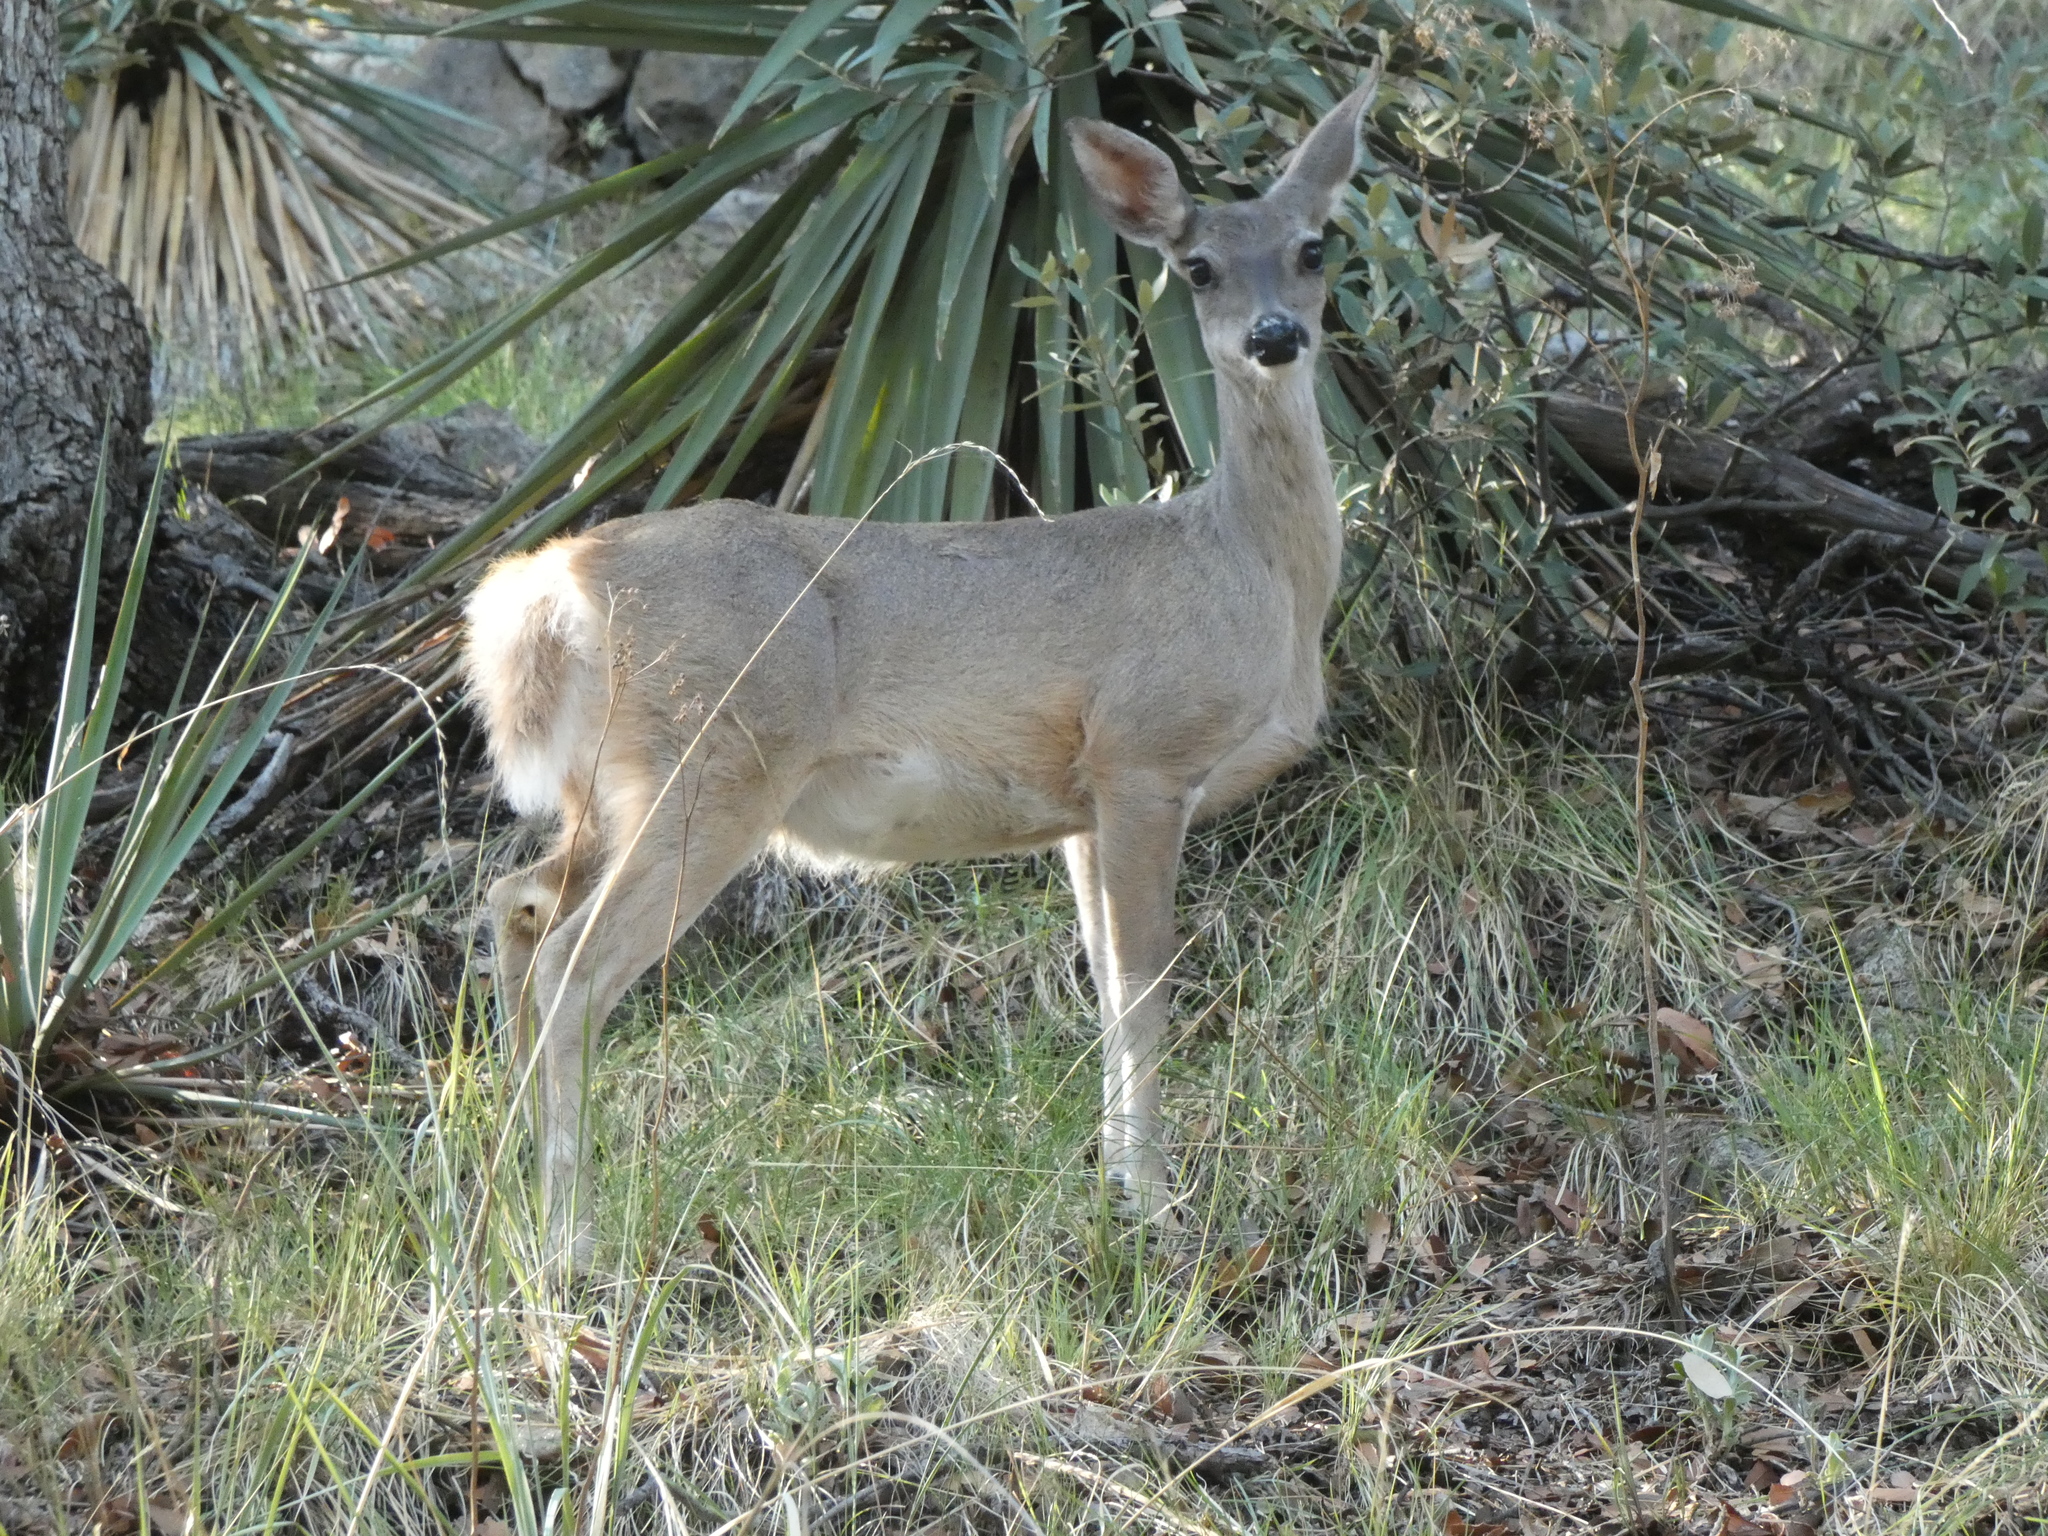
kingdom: Animalia
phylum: Chordata
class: Mammalia
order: Artiodactyla
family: Cervidae
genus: Odocoileus
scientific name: Odocoileus virginianus
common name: White-tailed deer
